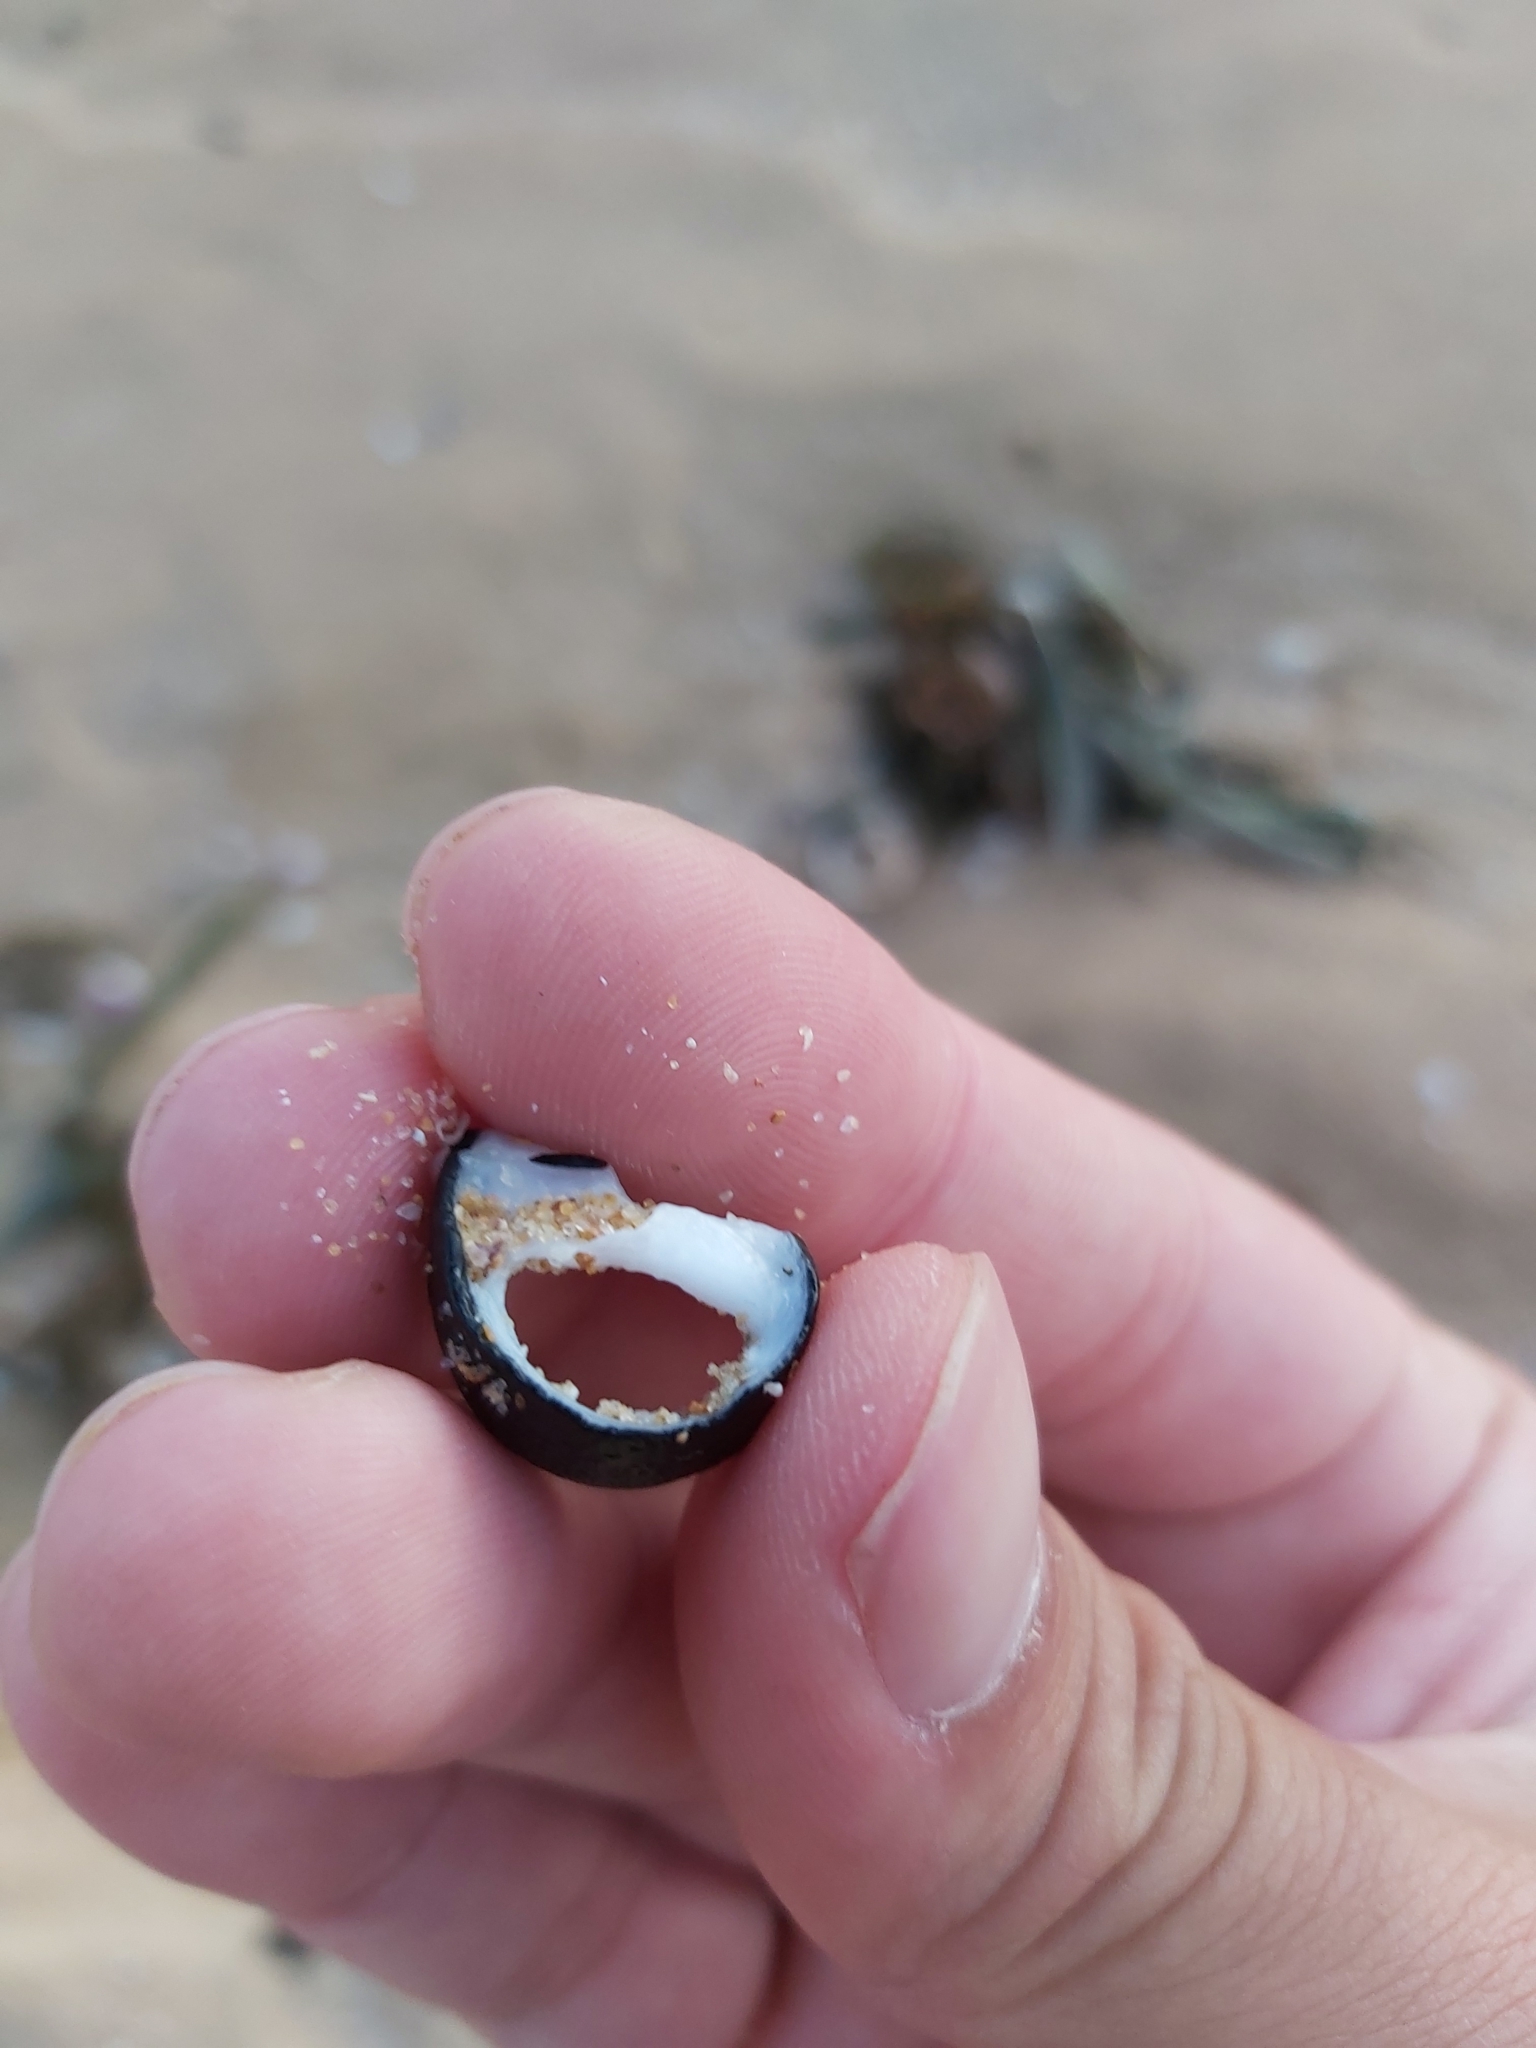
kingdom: Animalia
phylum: Mollusca
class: Gastropoda
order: Cycloneritida
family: Neritidae
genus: Nerita
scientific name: Nerita melanotragus
